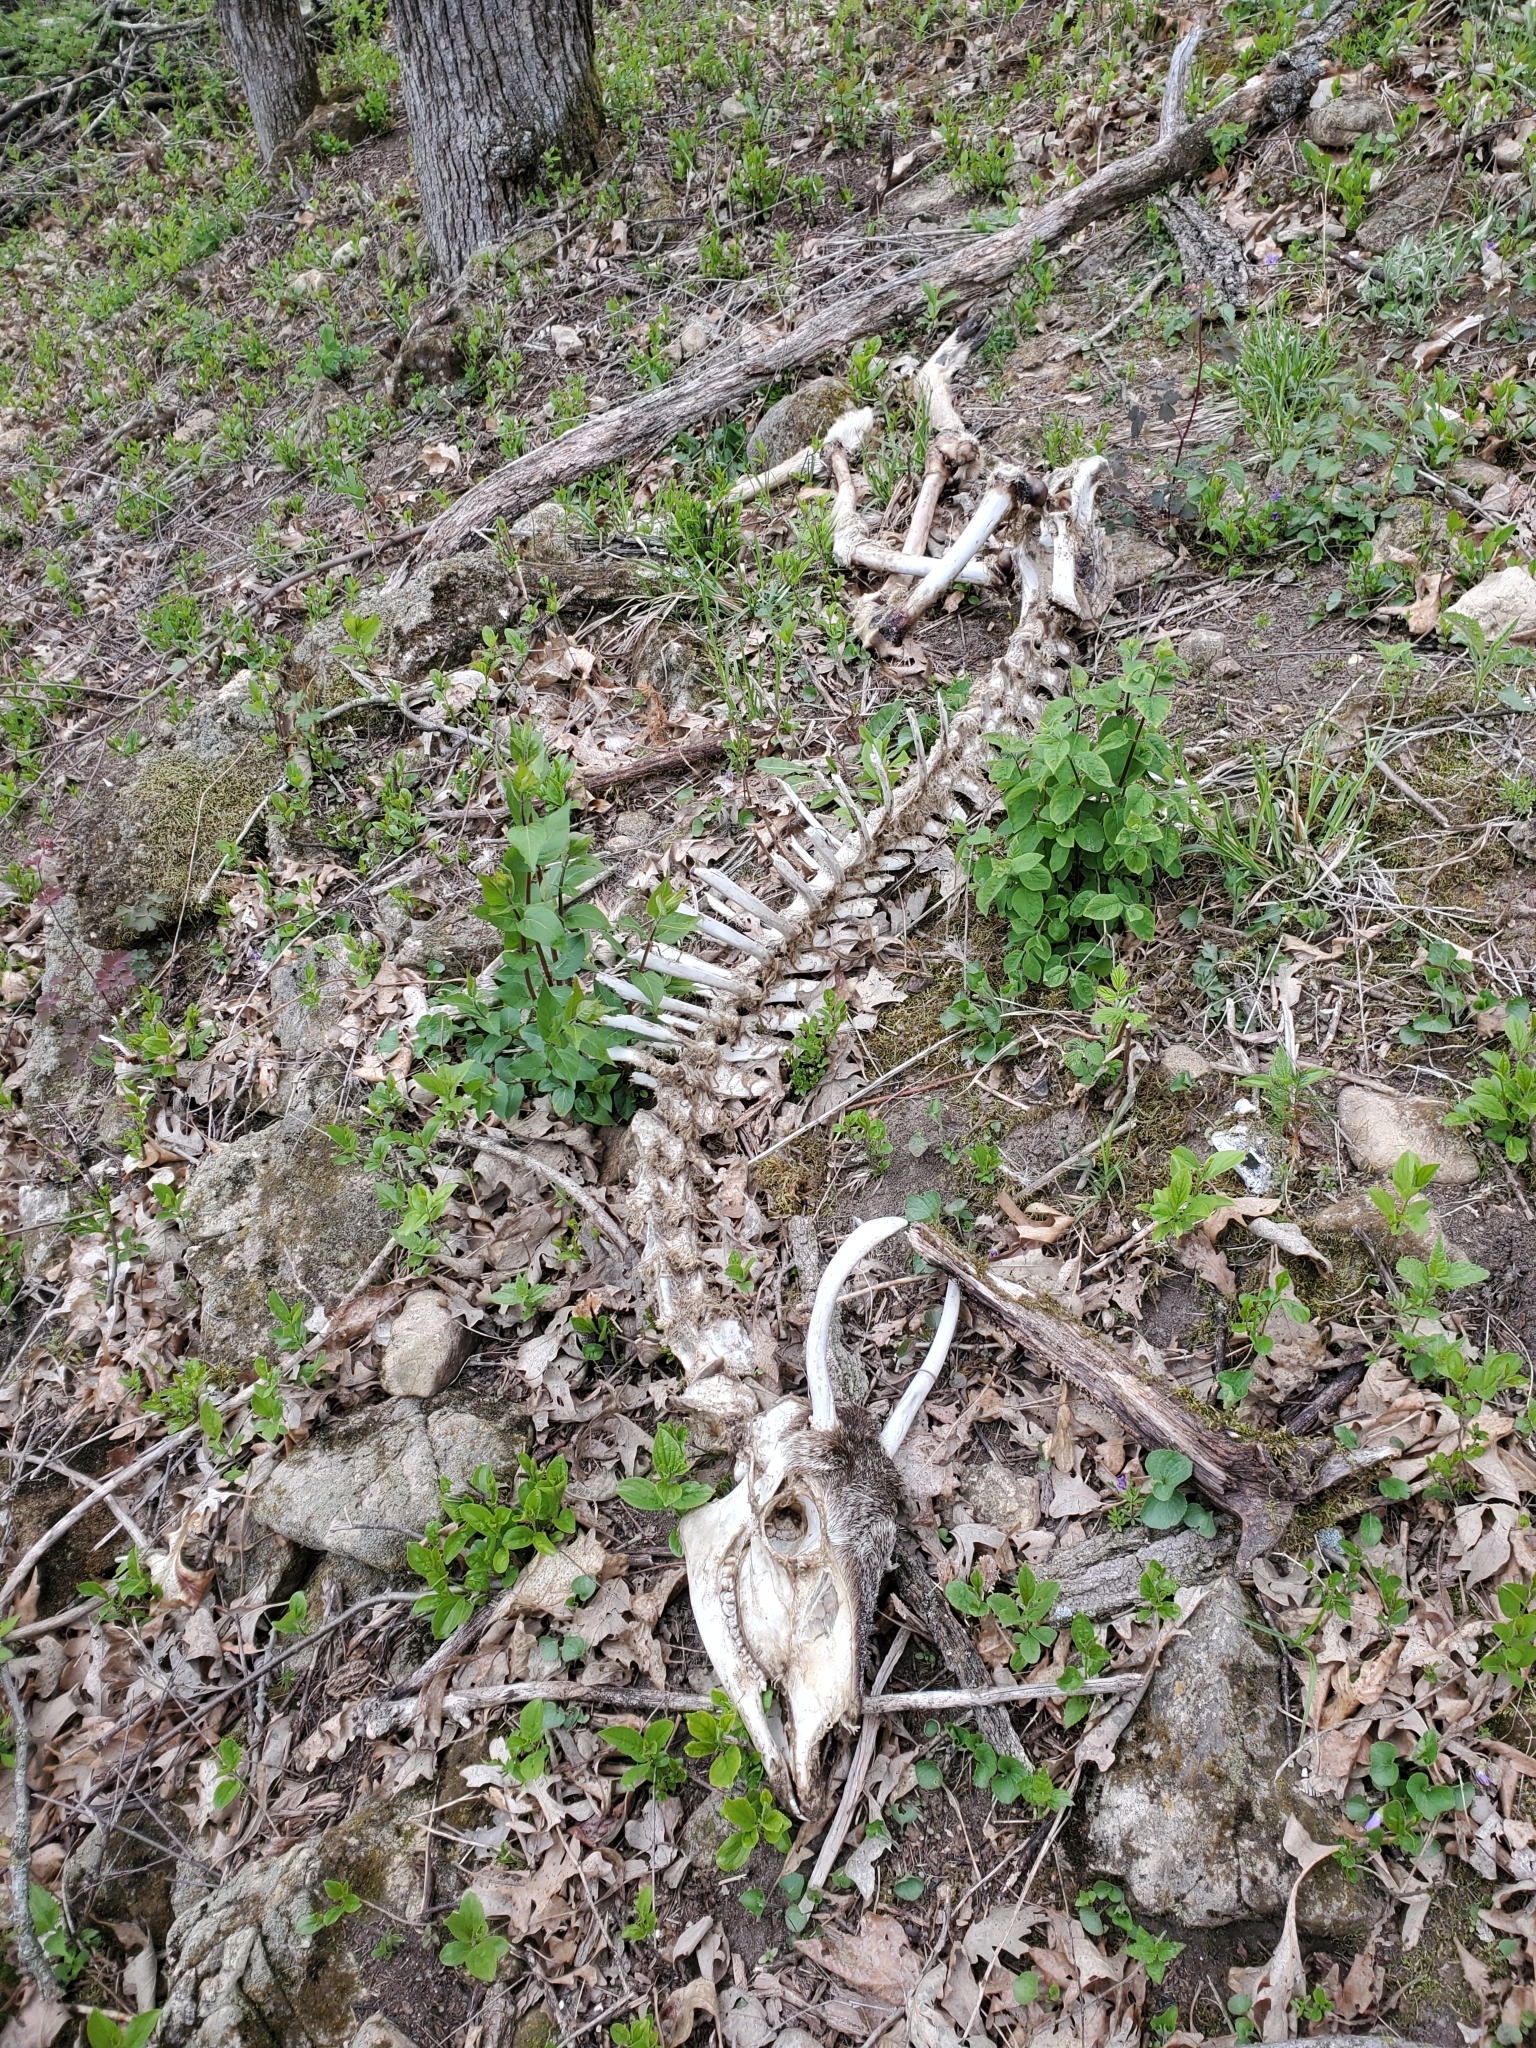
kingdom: Animalia
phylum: Chordata
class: Mammalia
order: Artiodactyla
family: Cervidae
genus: Odocoileus
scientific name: Odocoileus virginianus
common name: White-tailed deer
